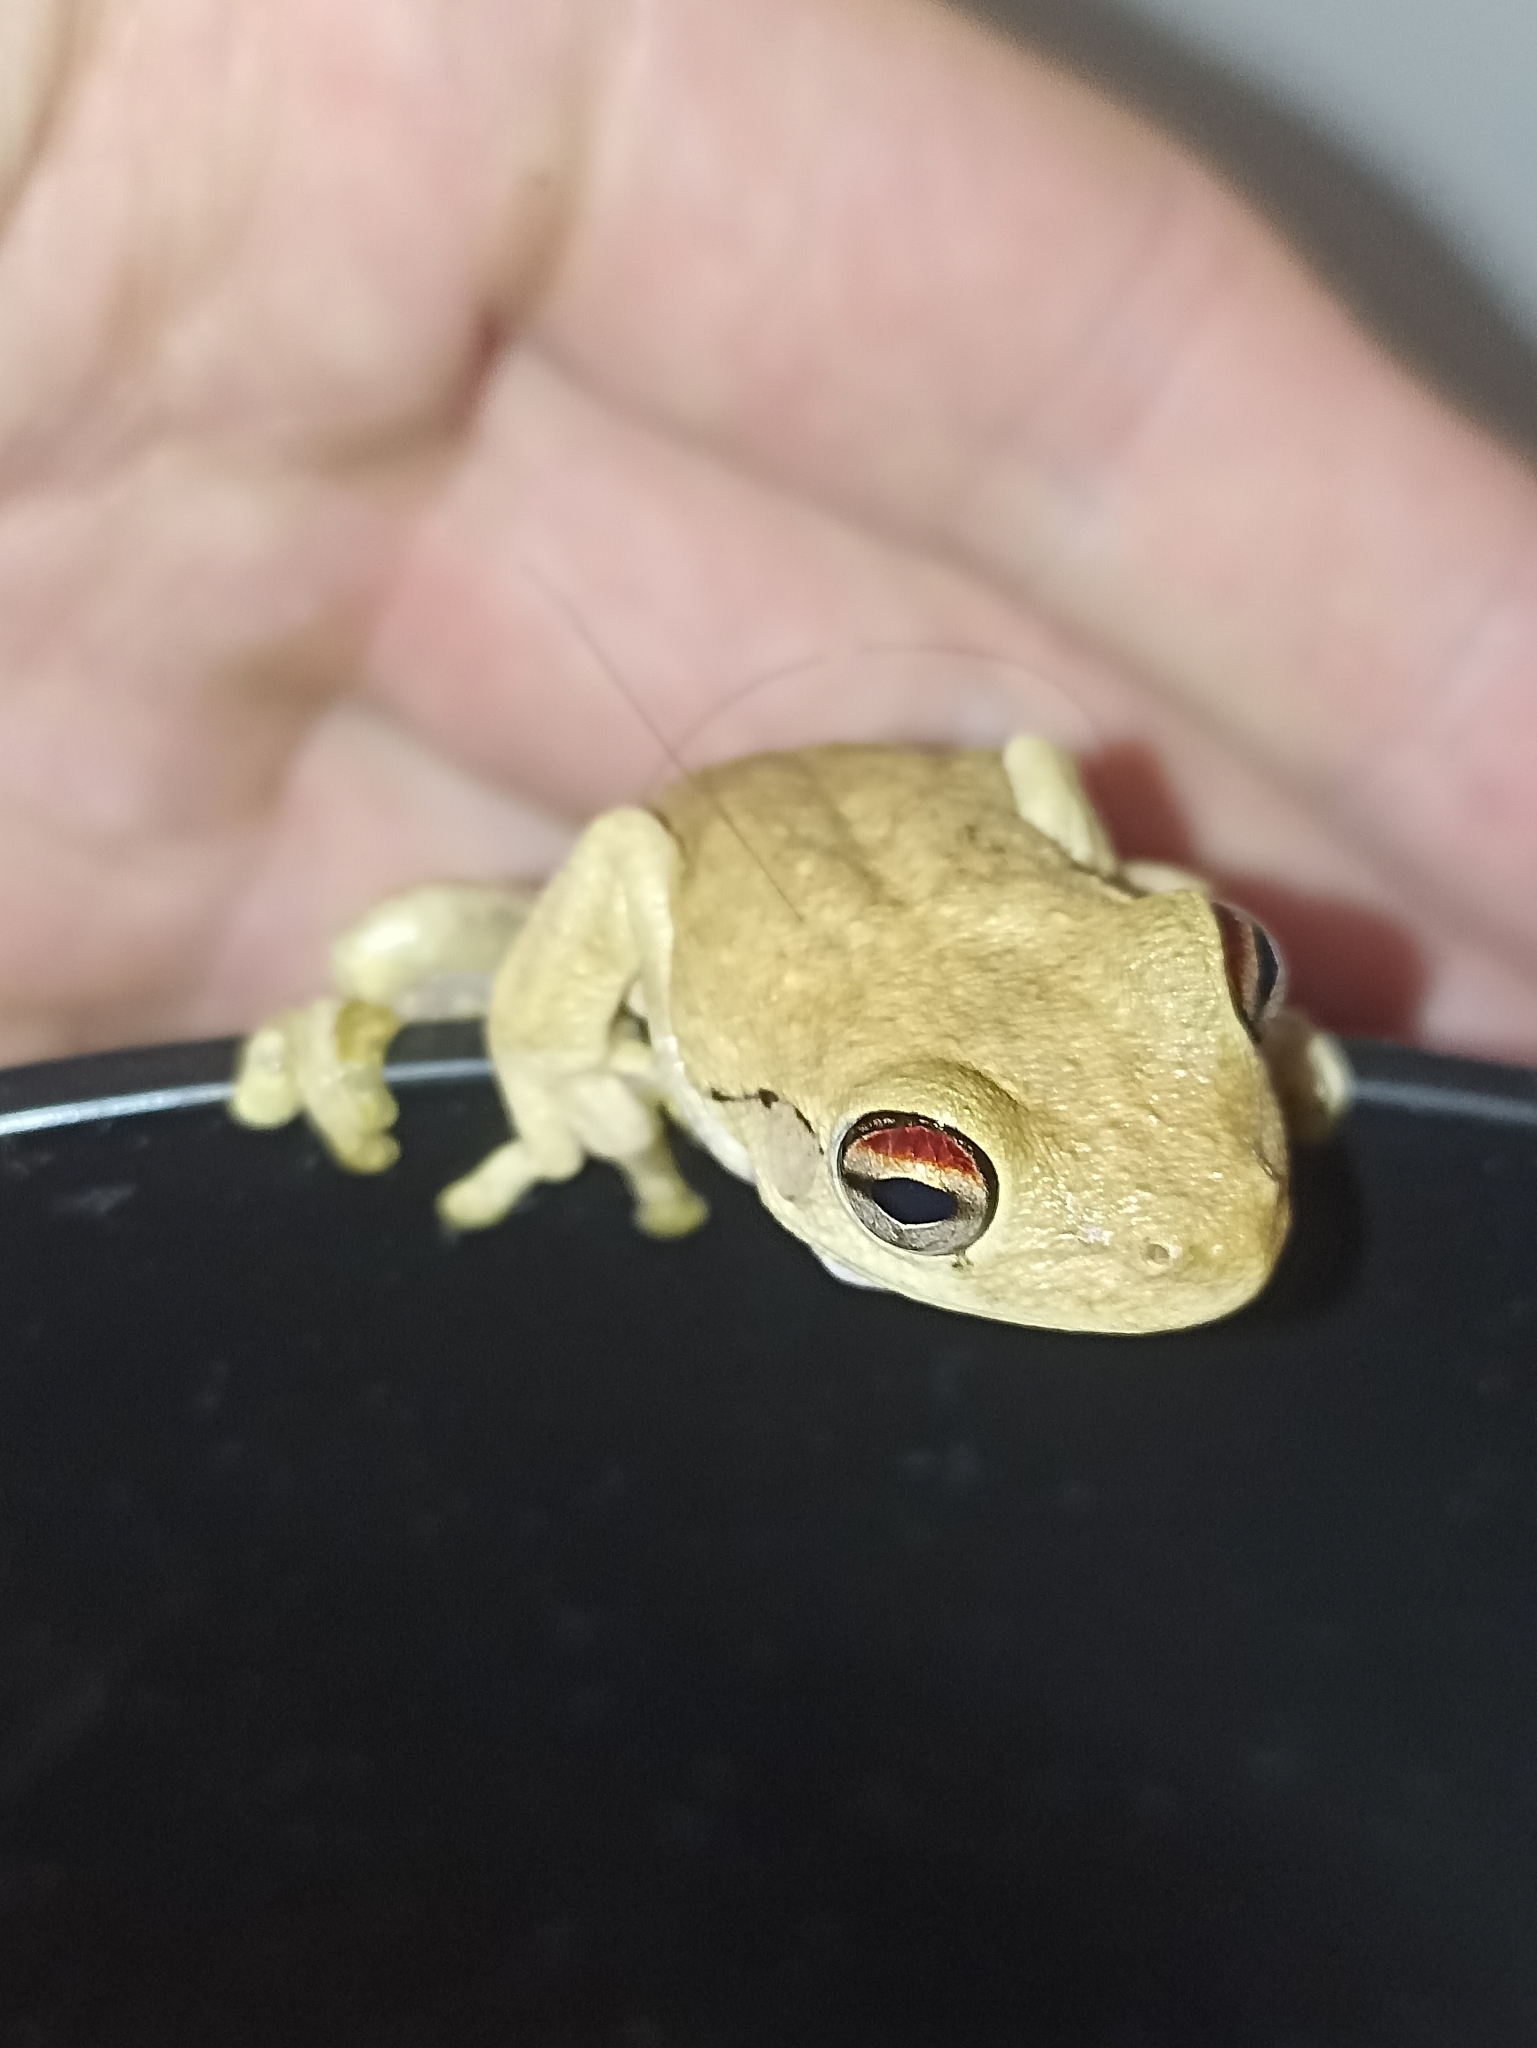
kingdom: Animalia
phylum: Chordata
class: Amphibia
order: Anura
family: Pelodryadidae
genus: Litoria
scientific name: Litoria
